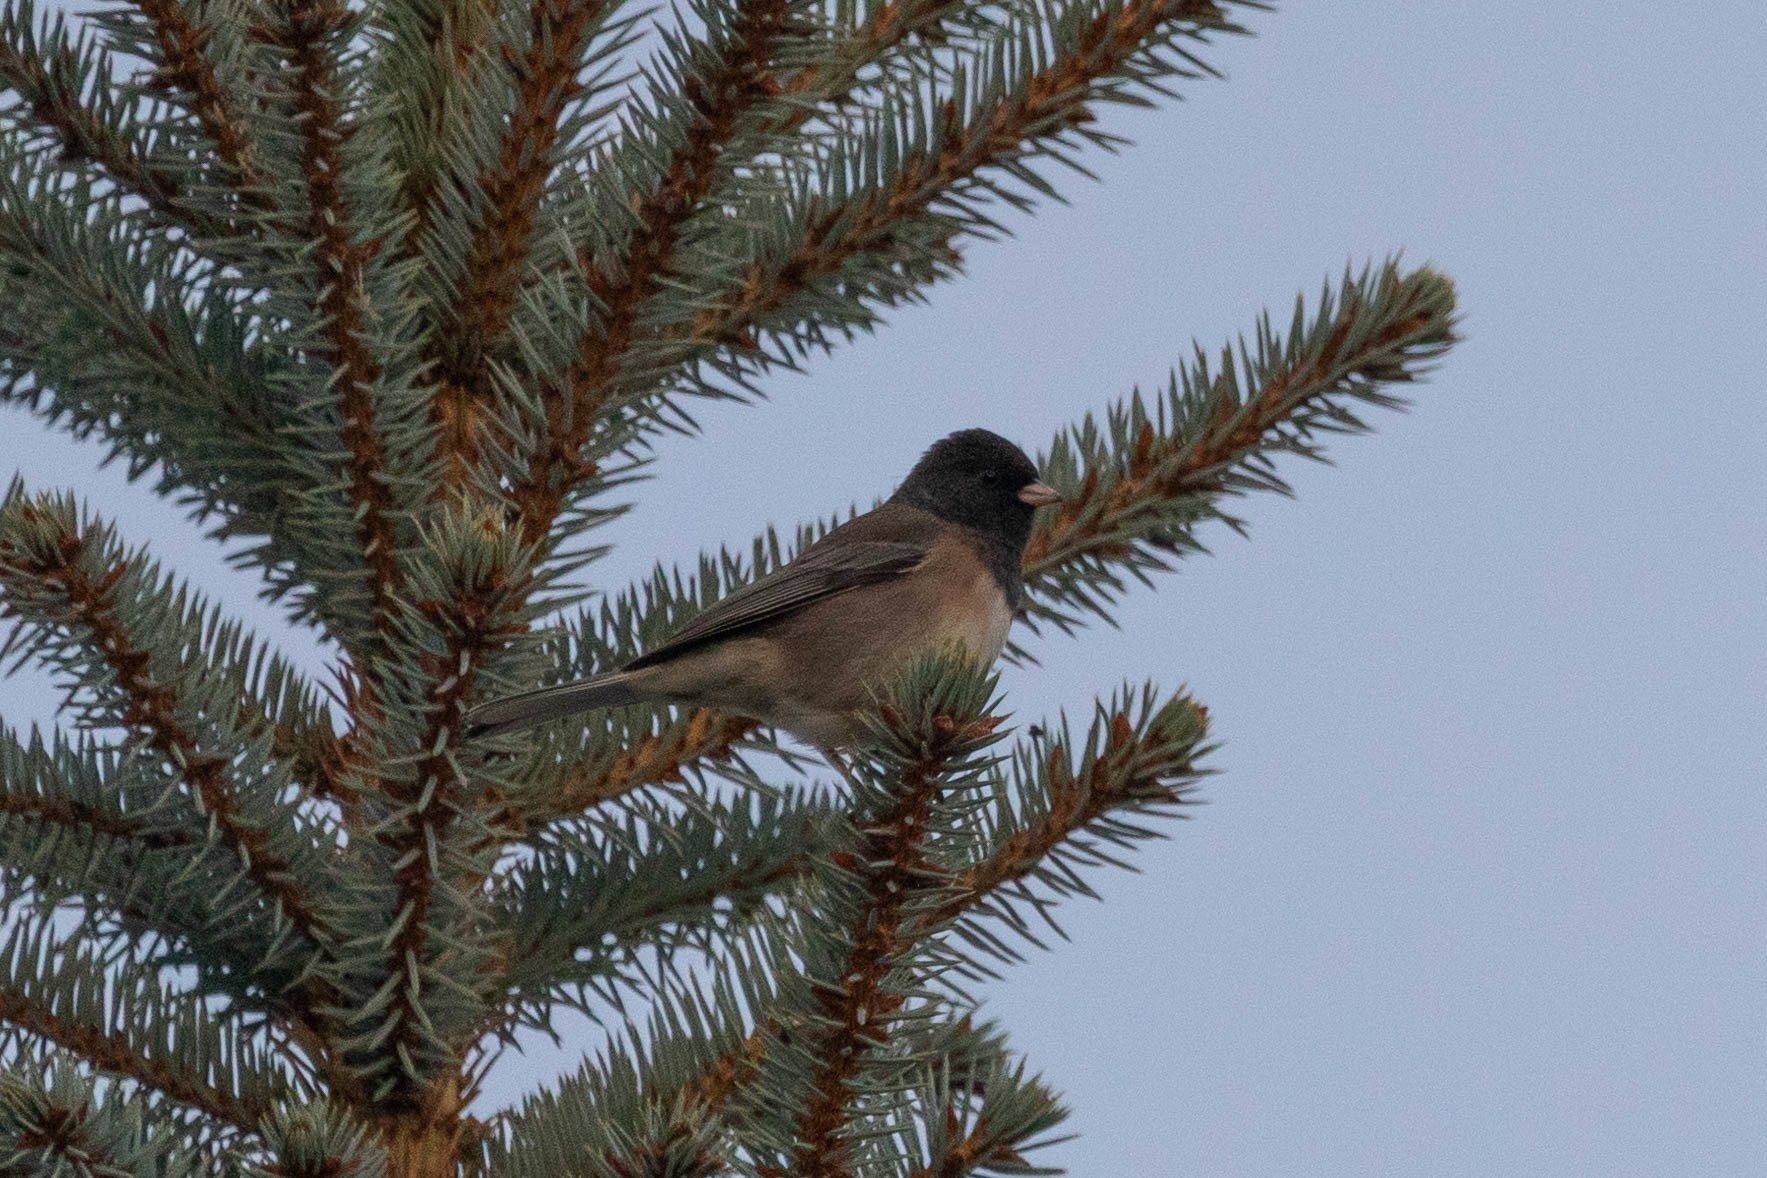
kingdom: Animalia
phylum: Chordata
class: Aves
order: Passeriformes
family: Passerellidae
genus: Junco
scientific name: Junco hyemalis
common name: Dark-eyed junco
